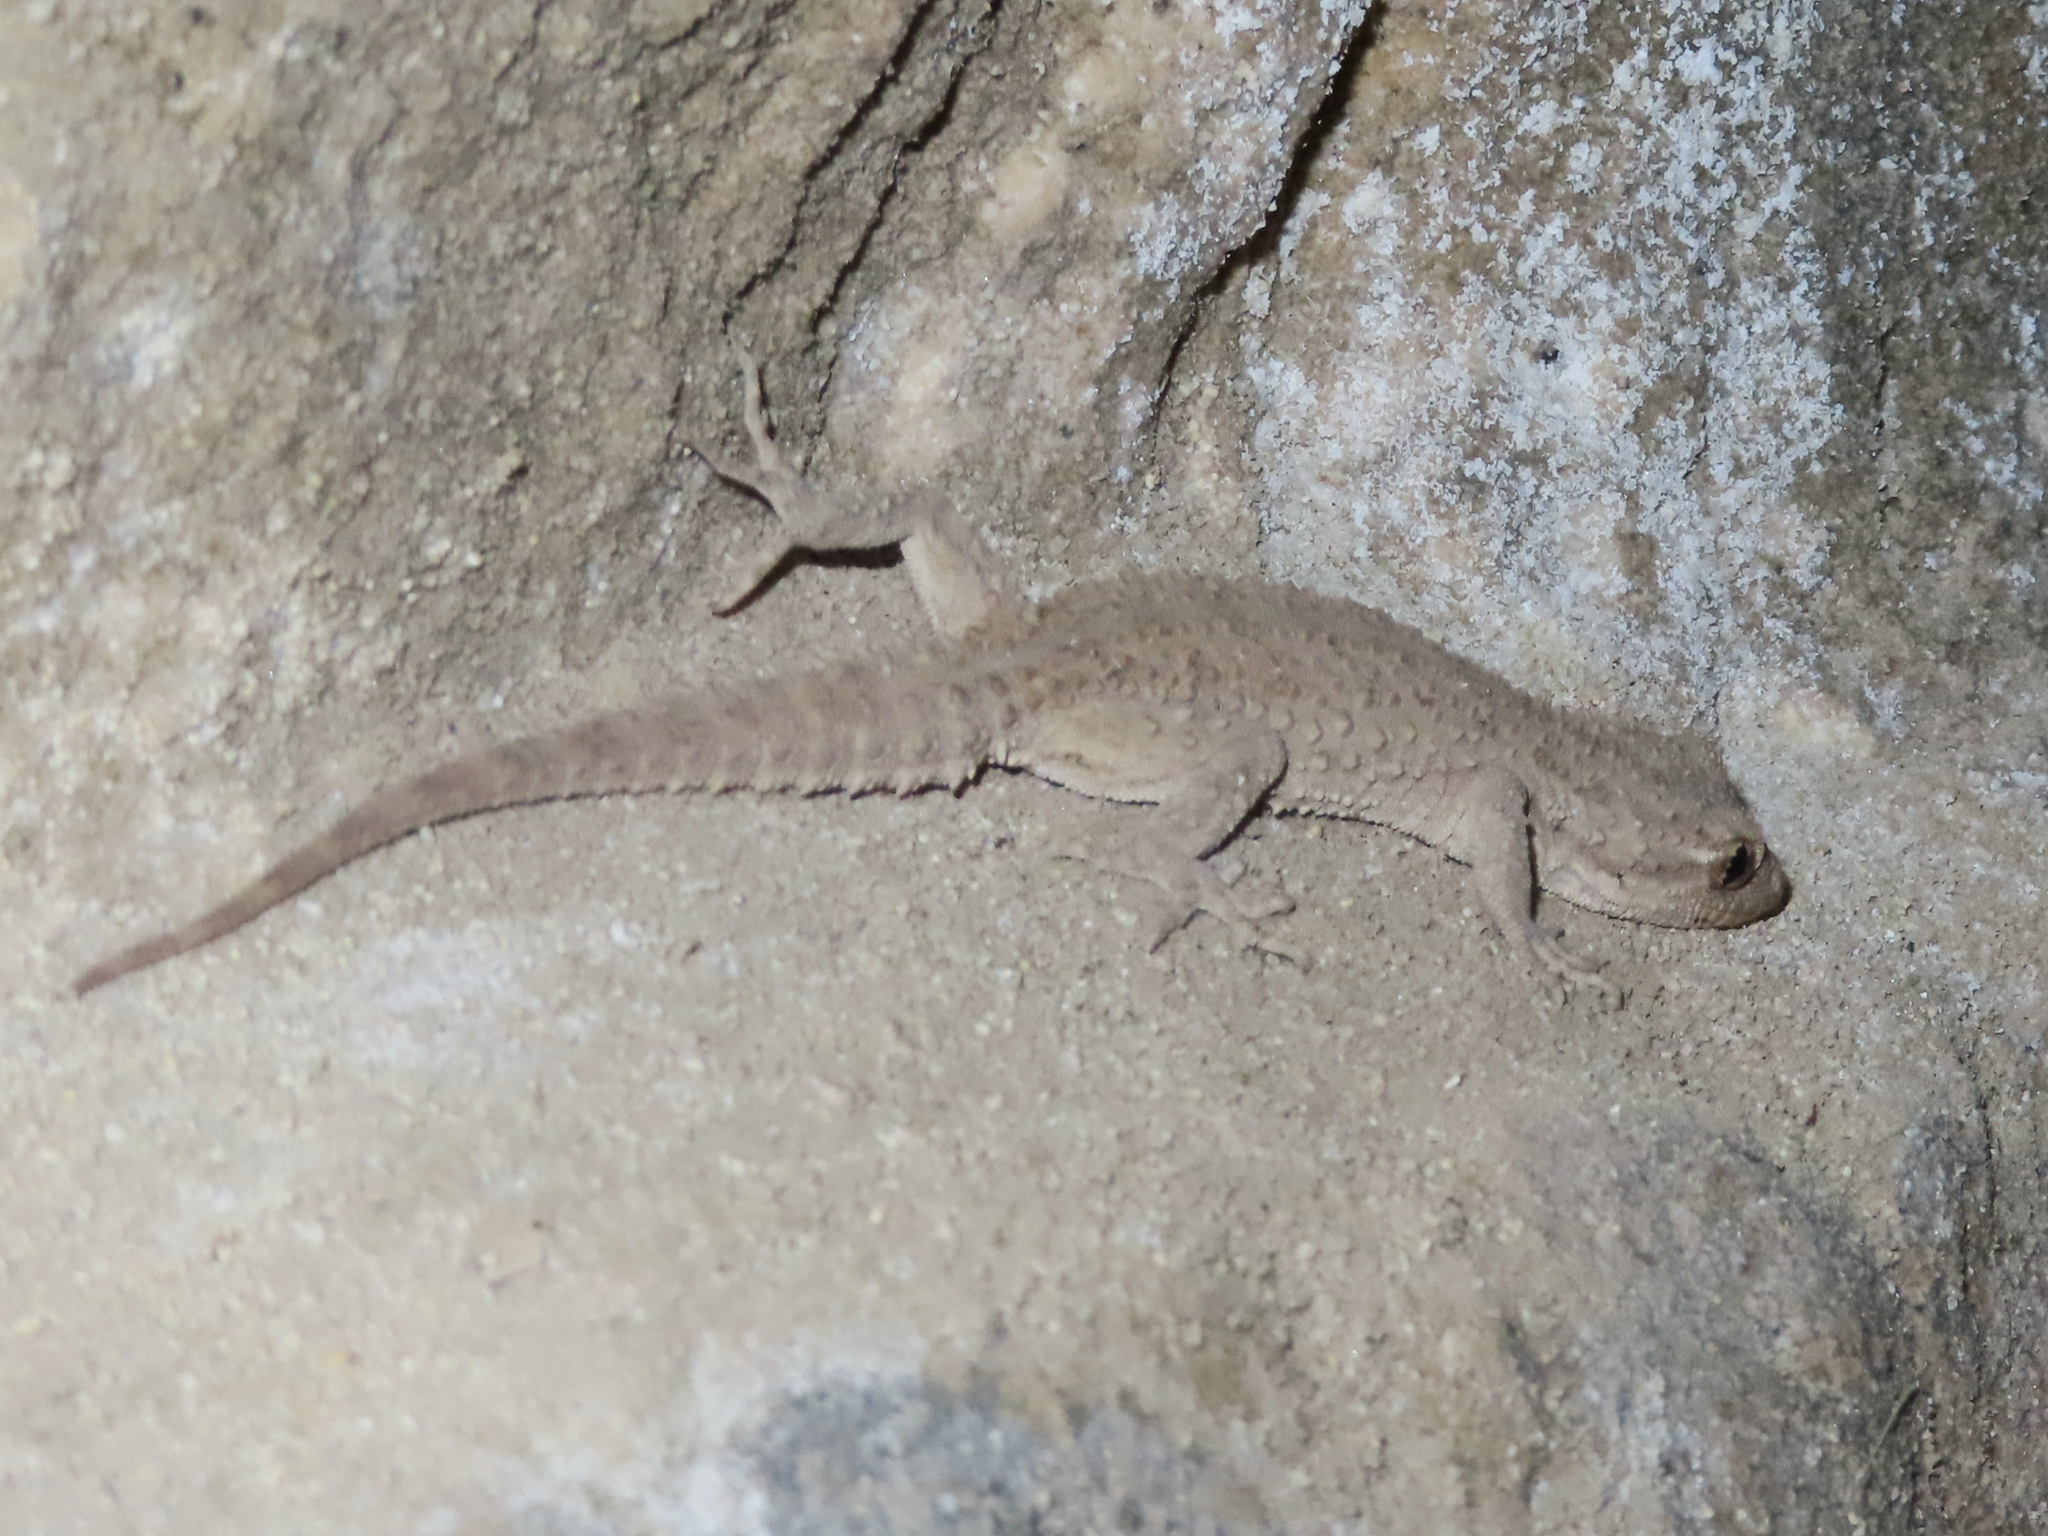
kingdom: Animalia
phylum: Chordata
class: Squamata
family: Gekkonidae
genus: Mediodactylus
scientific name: Mediodactylus russowii
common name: Grey thin-toed gecko
